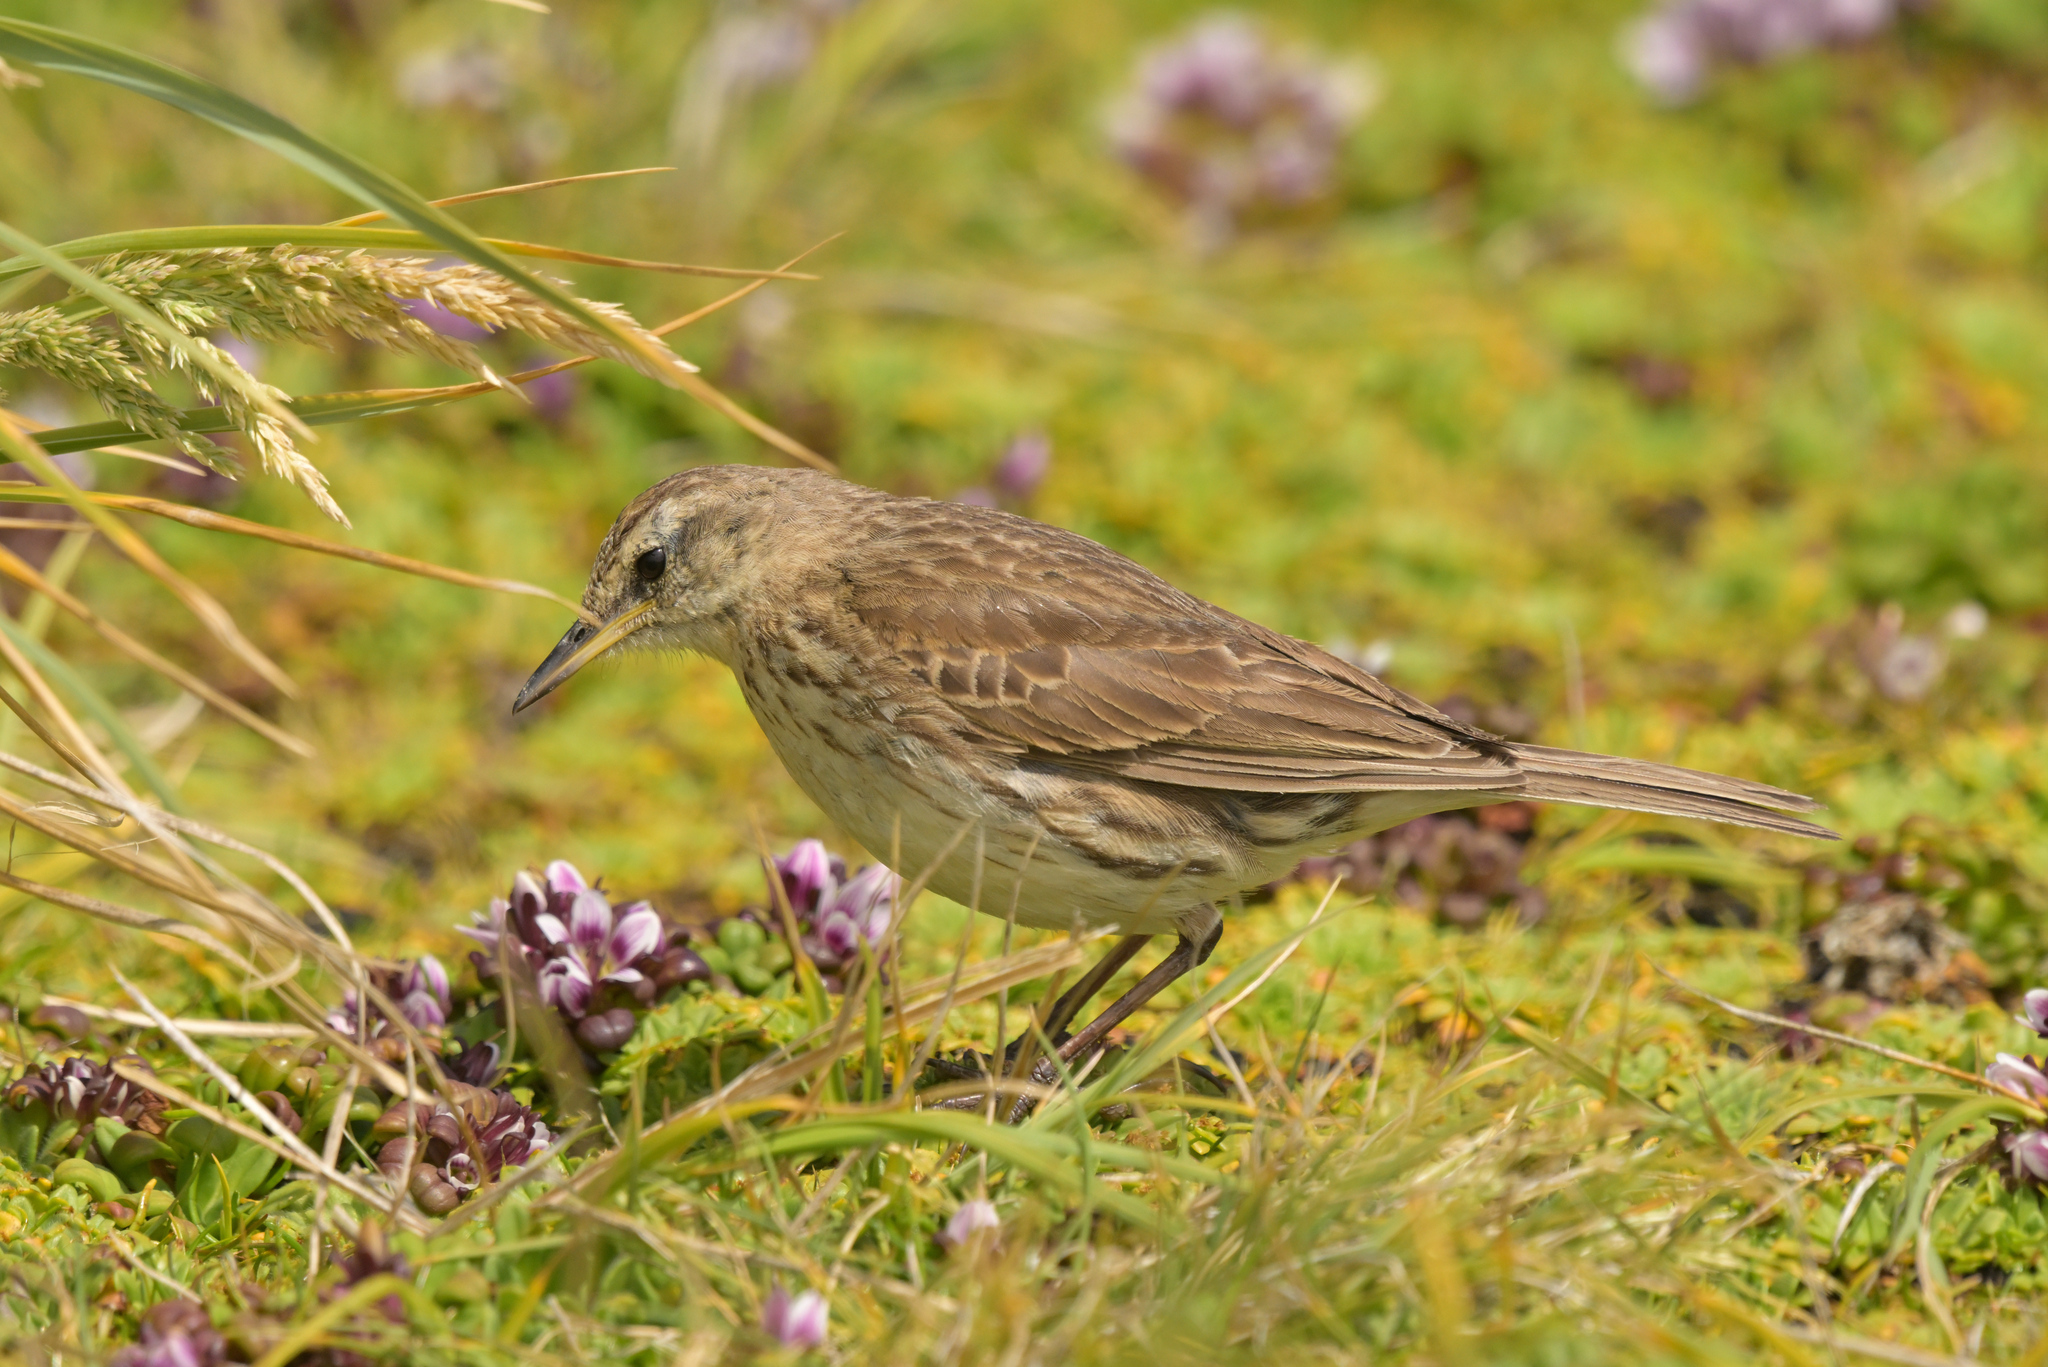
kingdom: Animalia
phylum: Chordata
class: Aves
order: Passeriformes
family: Motacillidae
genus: Anthus
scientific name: Anthus novaeseelandiae
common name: New zealand pipit
